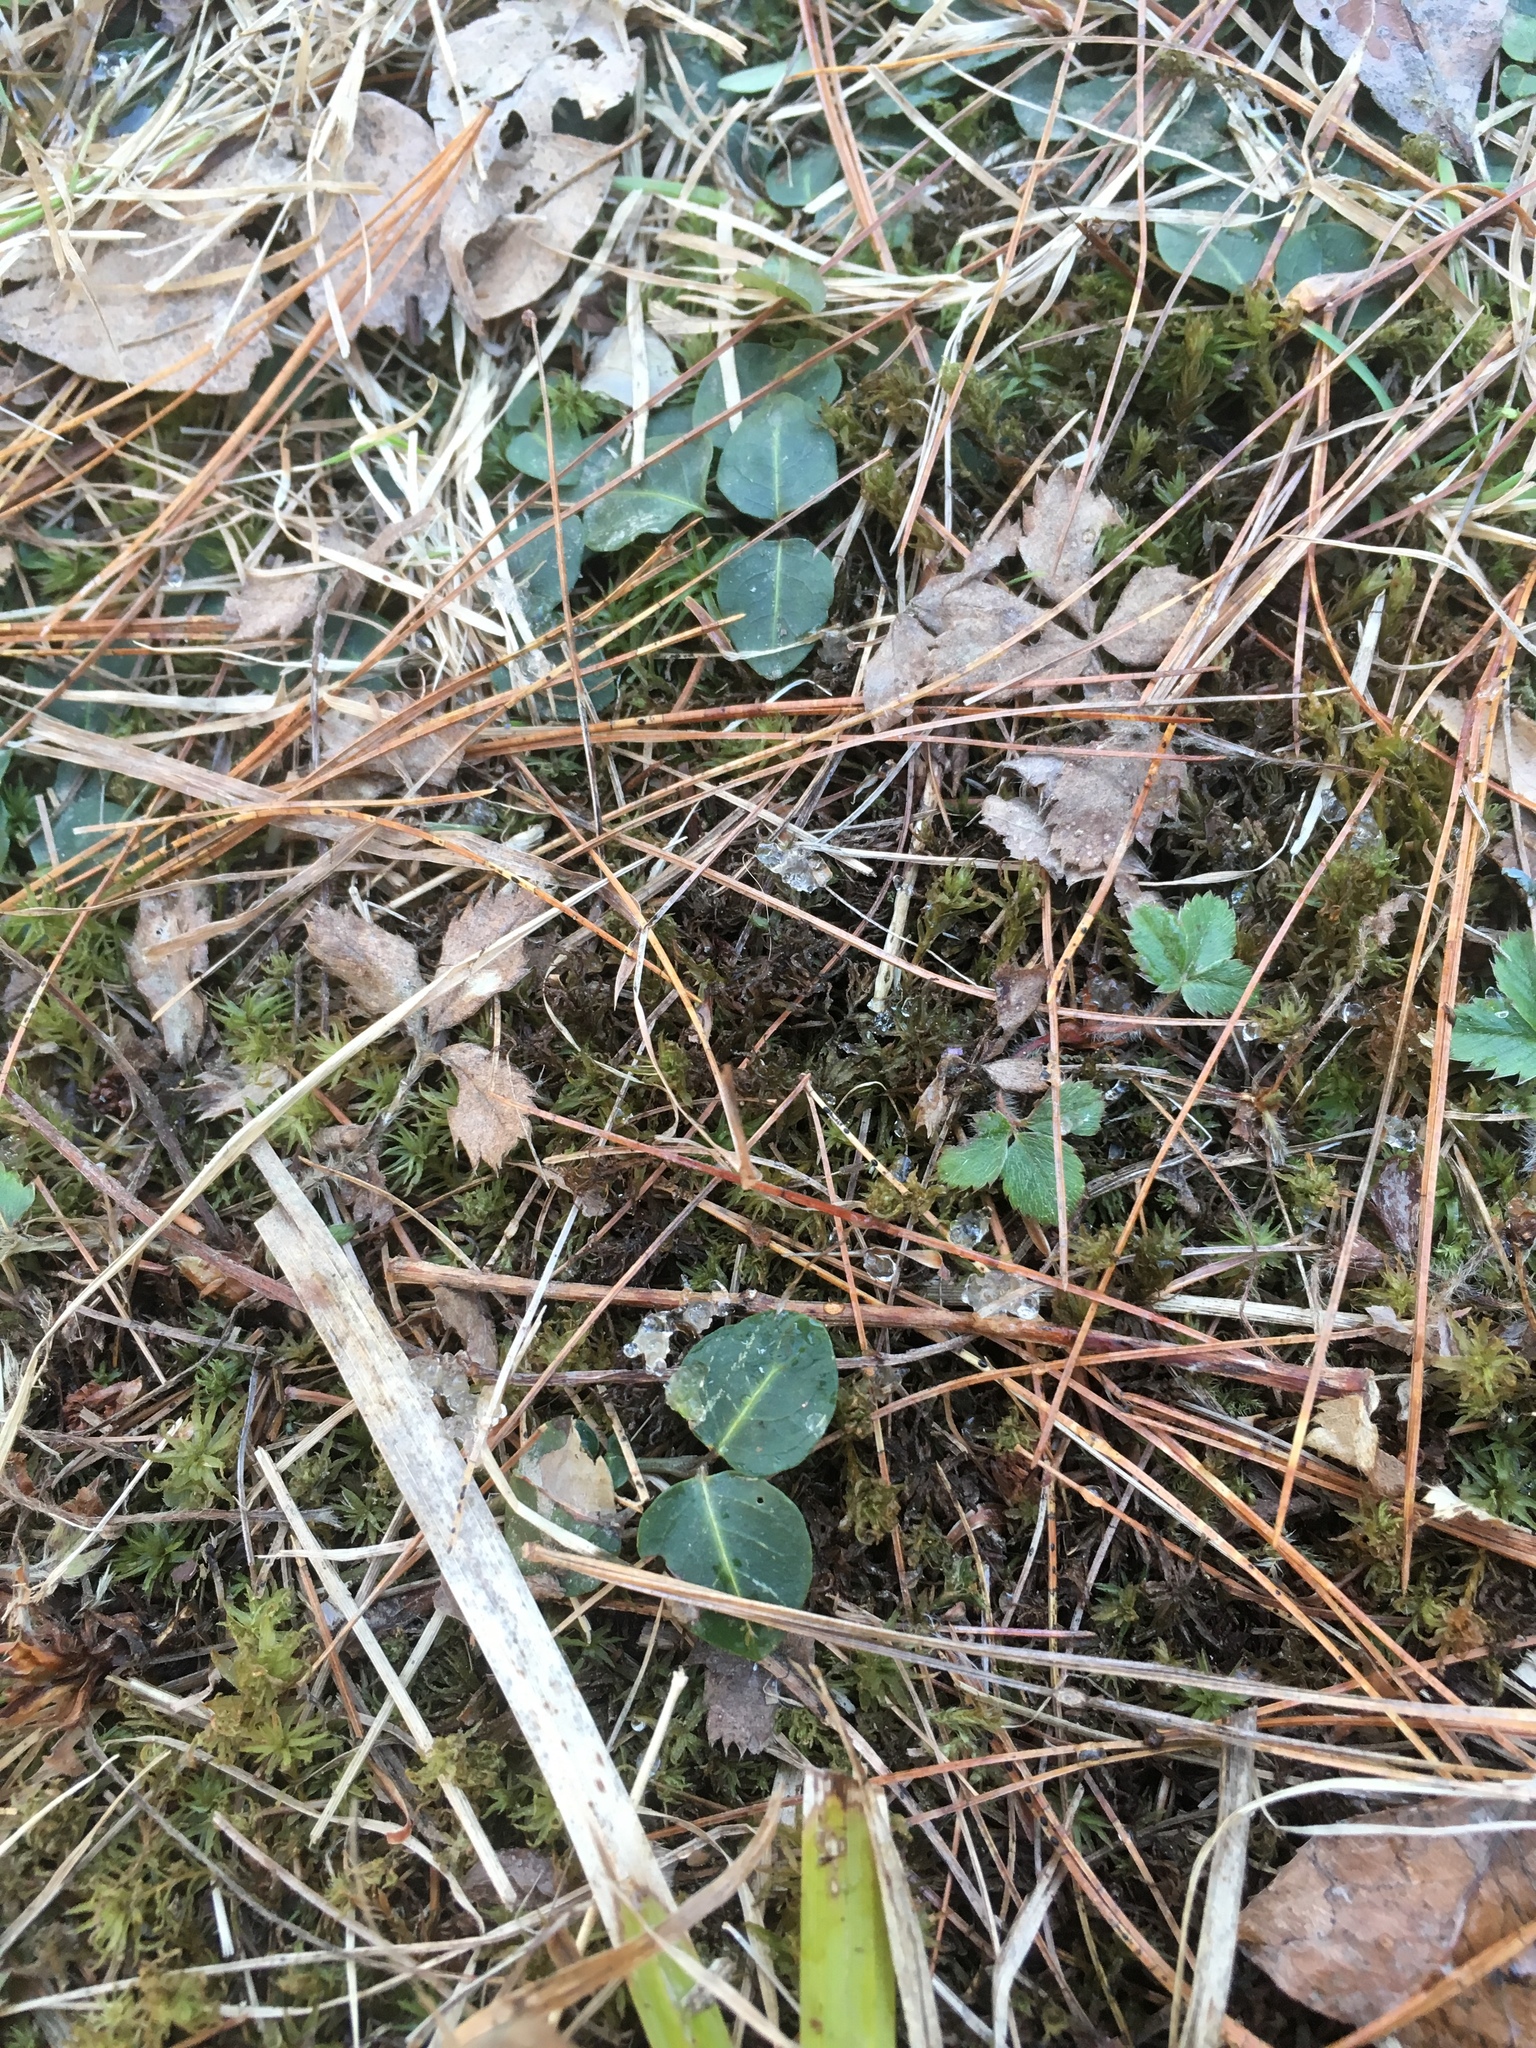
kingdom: Plantae
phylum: Tracheophyta
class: Magnoliopsida
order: Gentianales
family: Rubiaceae
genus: Mitchella
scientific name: Mitchella repens
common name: Partridge-berry
